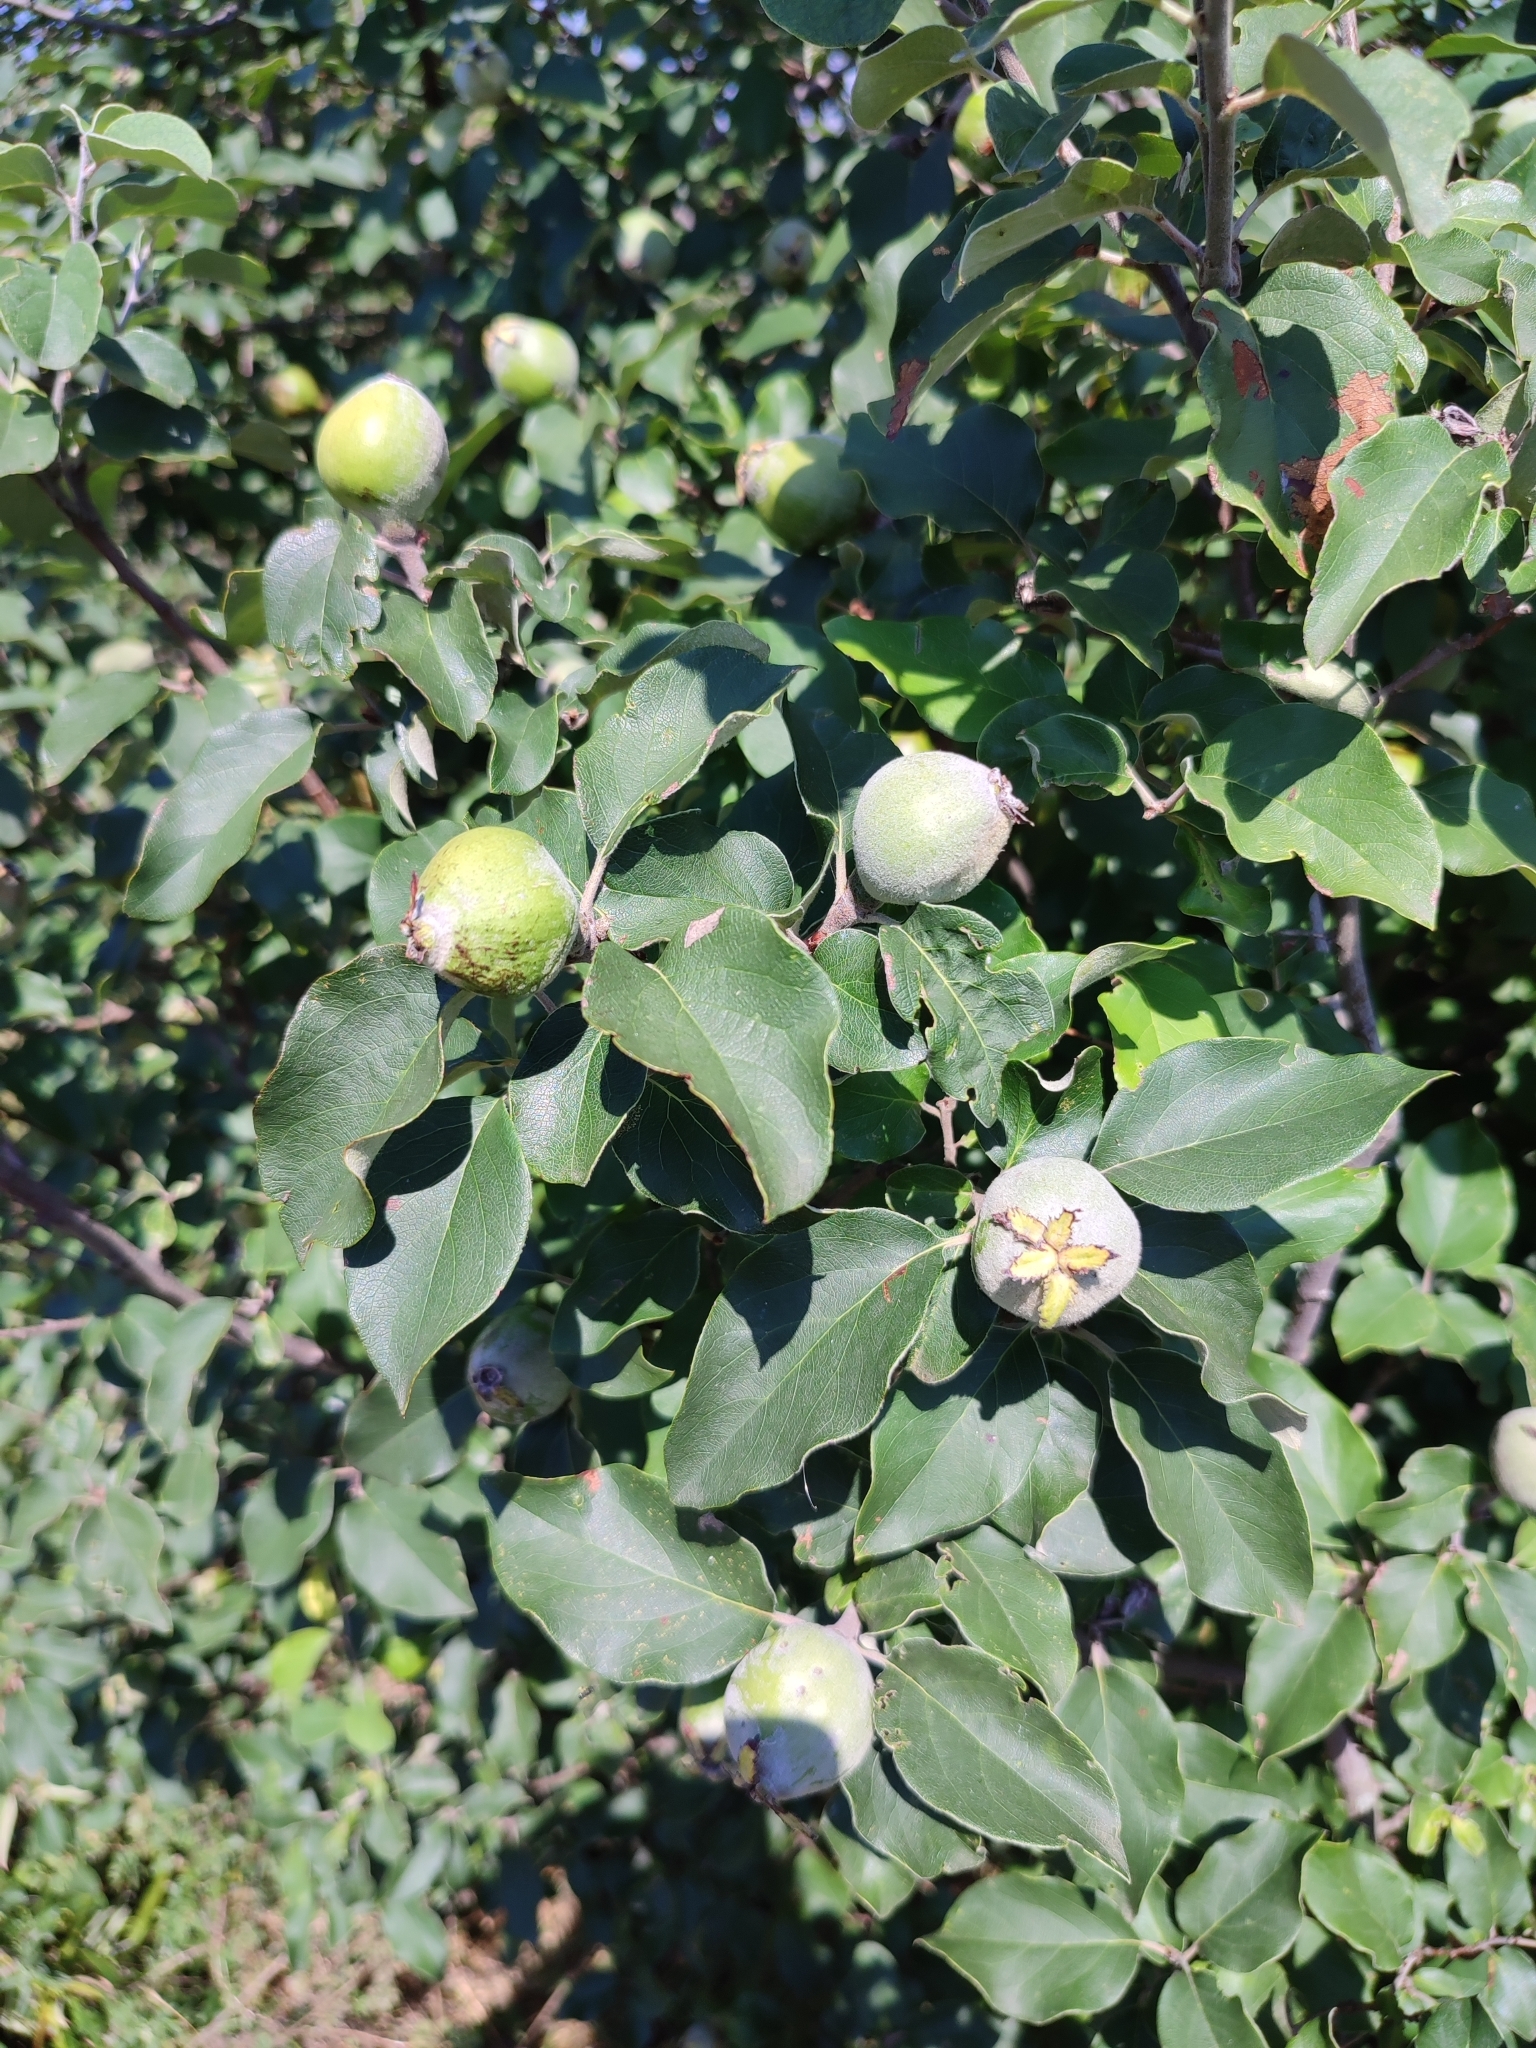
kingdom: Plantae
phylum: Tracheophyta
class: Magnoliopsida
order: Rosales
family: Rosaceae
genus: Cydonia
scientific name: Cydonia oblonga
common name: Quince
